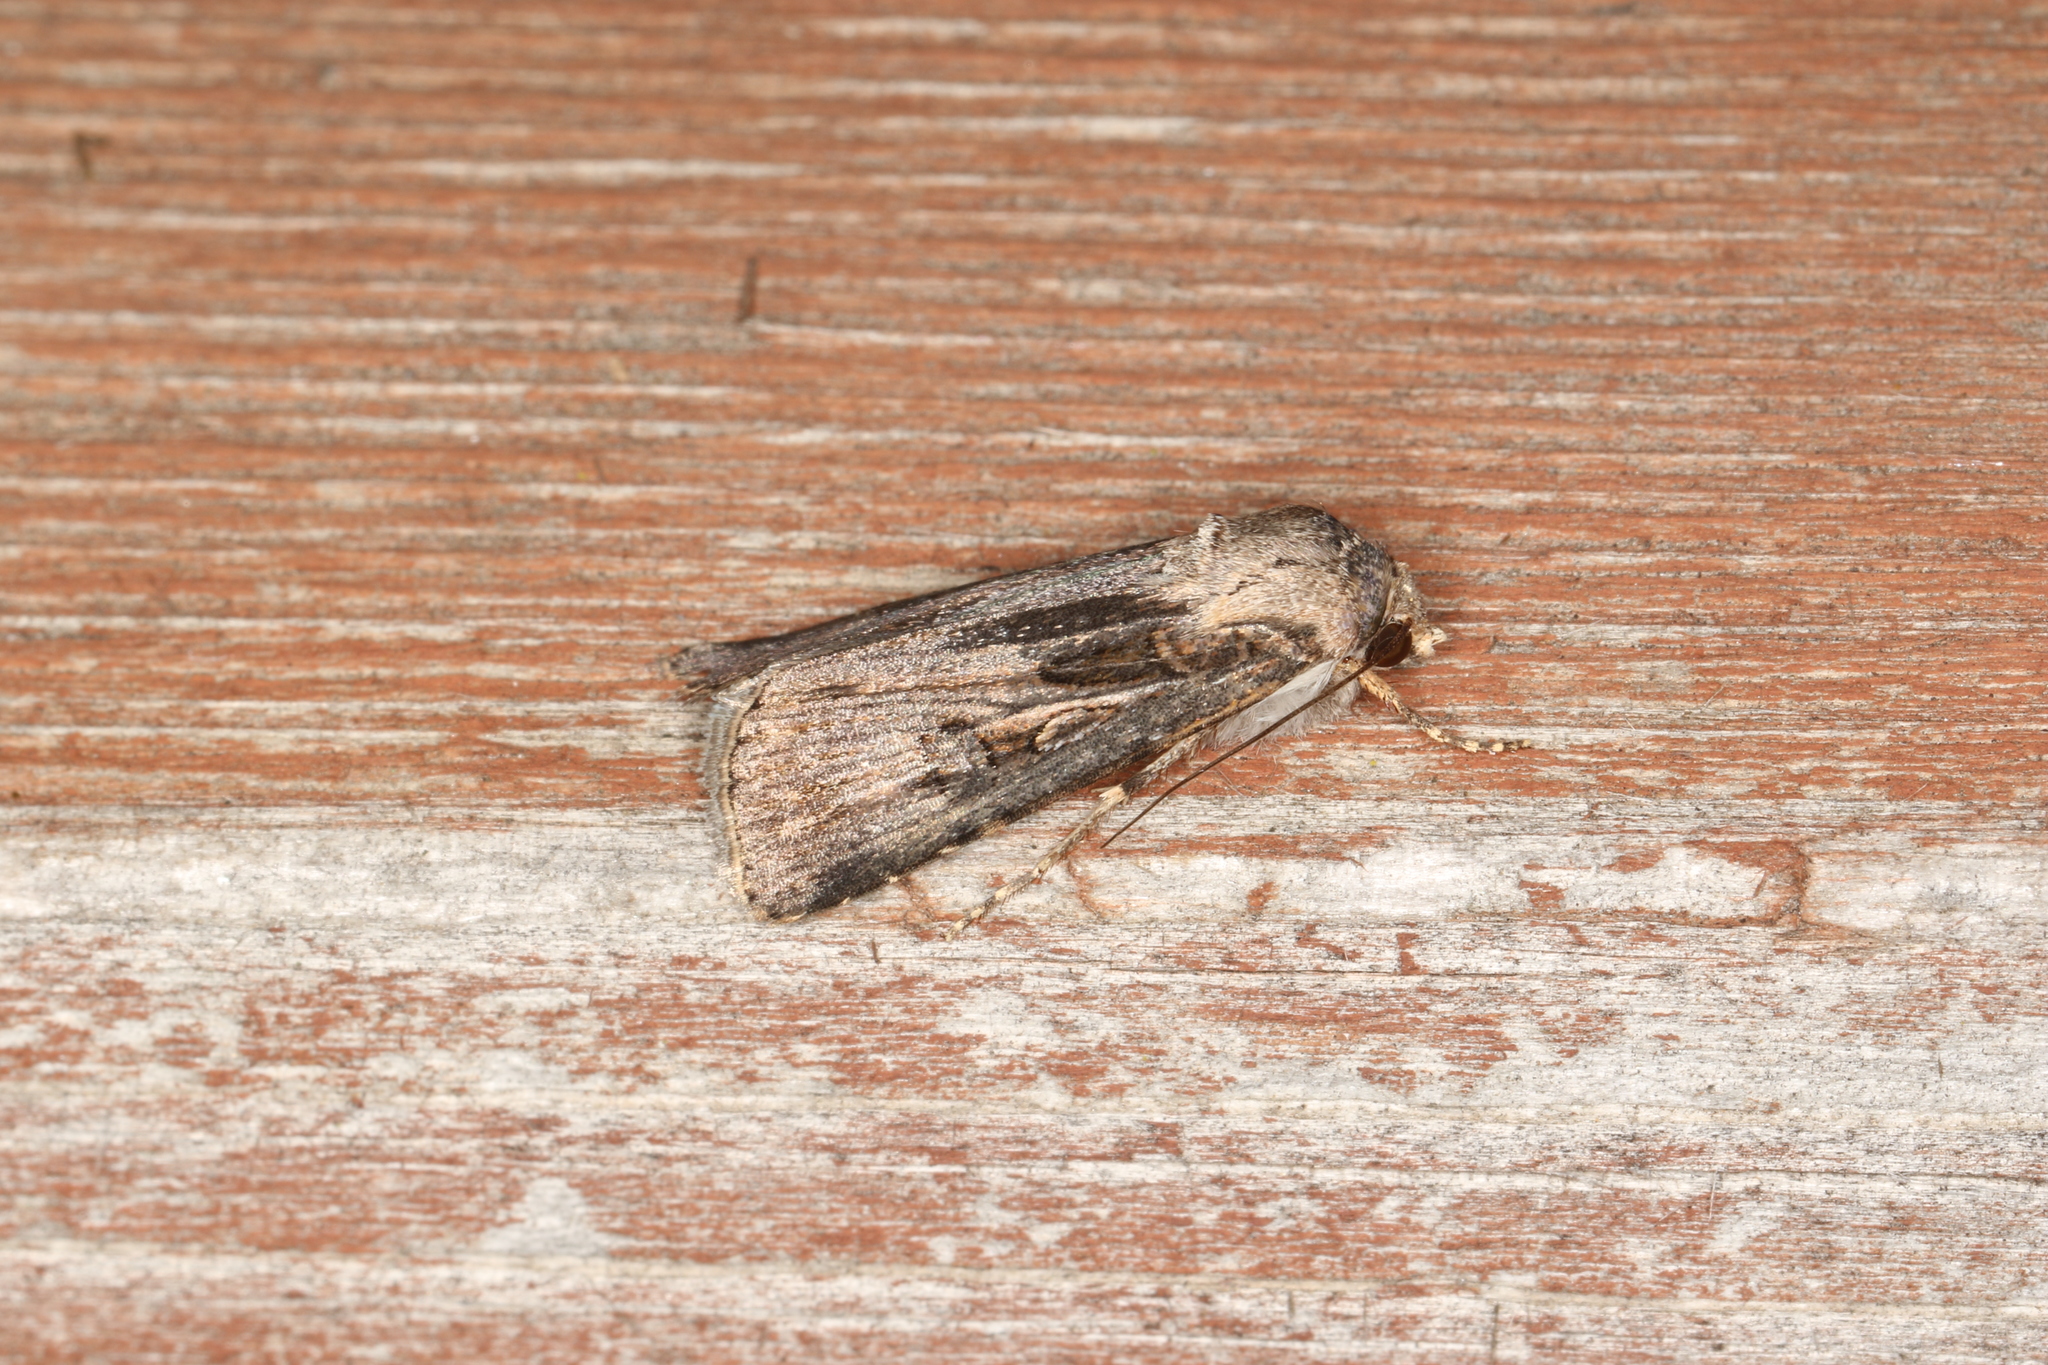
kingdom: Animalia
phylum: Arthropoda
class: Insecta
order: Lepidoptera
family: Noctuidae
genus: Agrotis
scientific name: Agrotis munda
